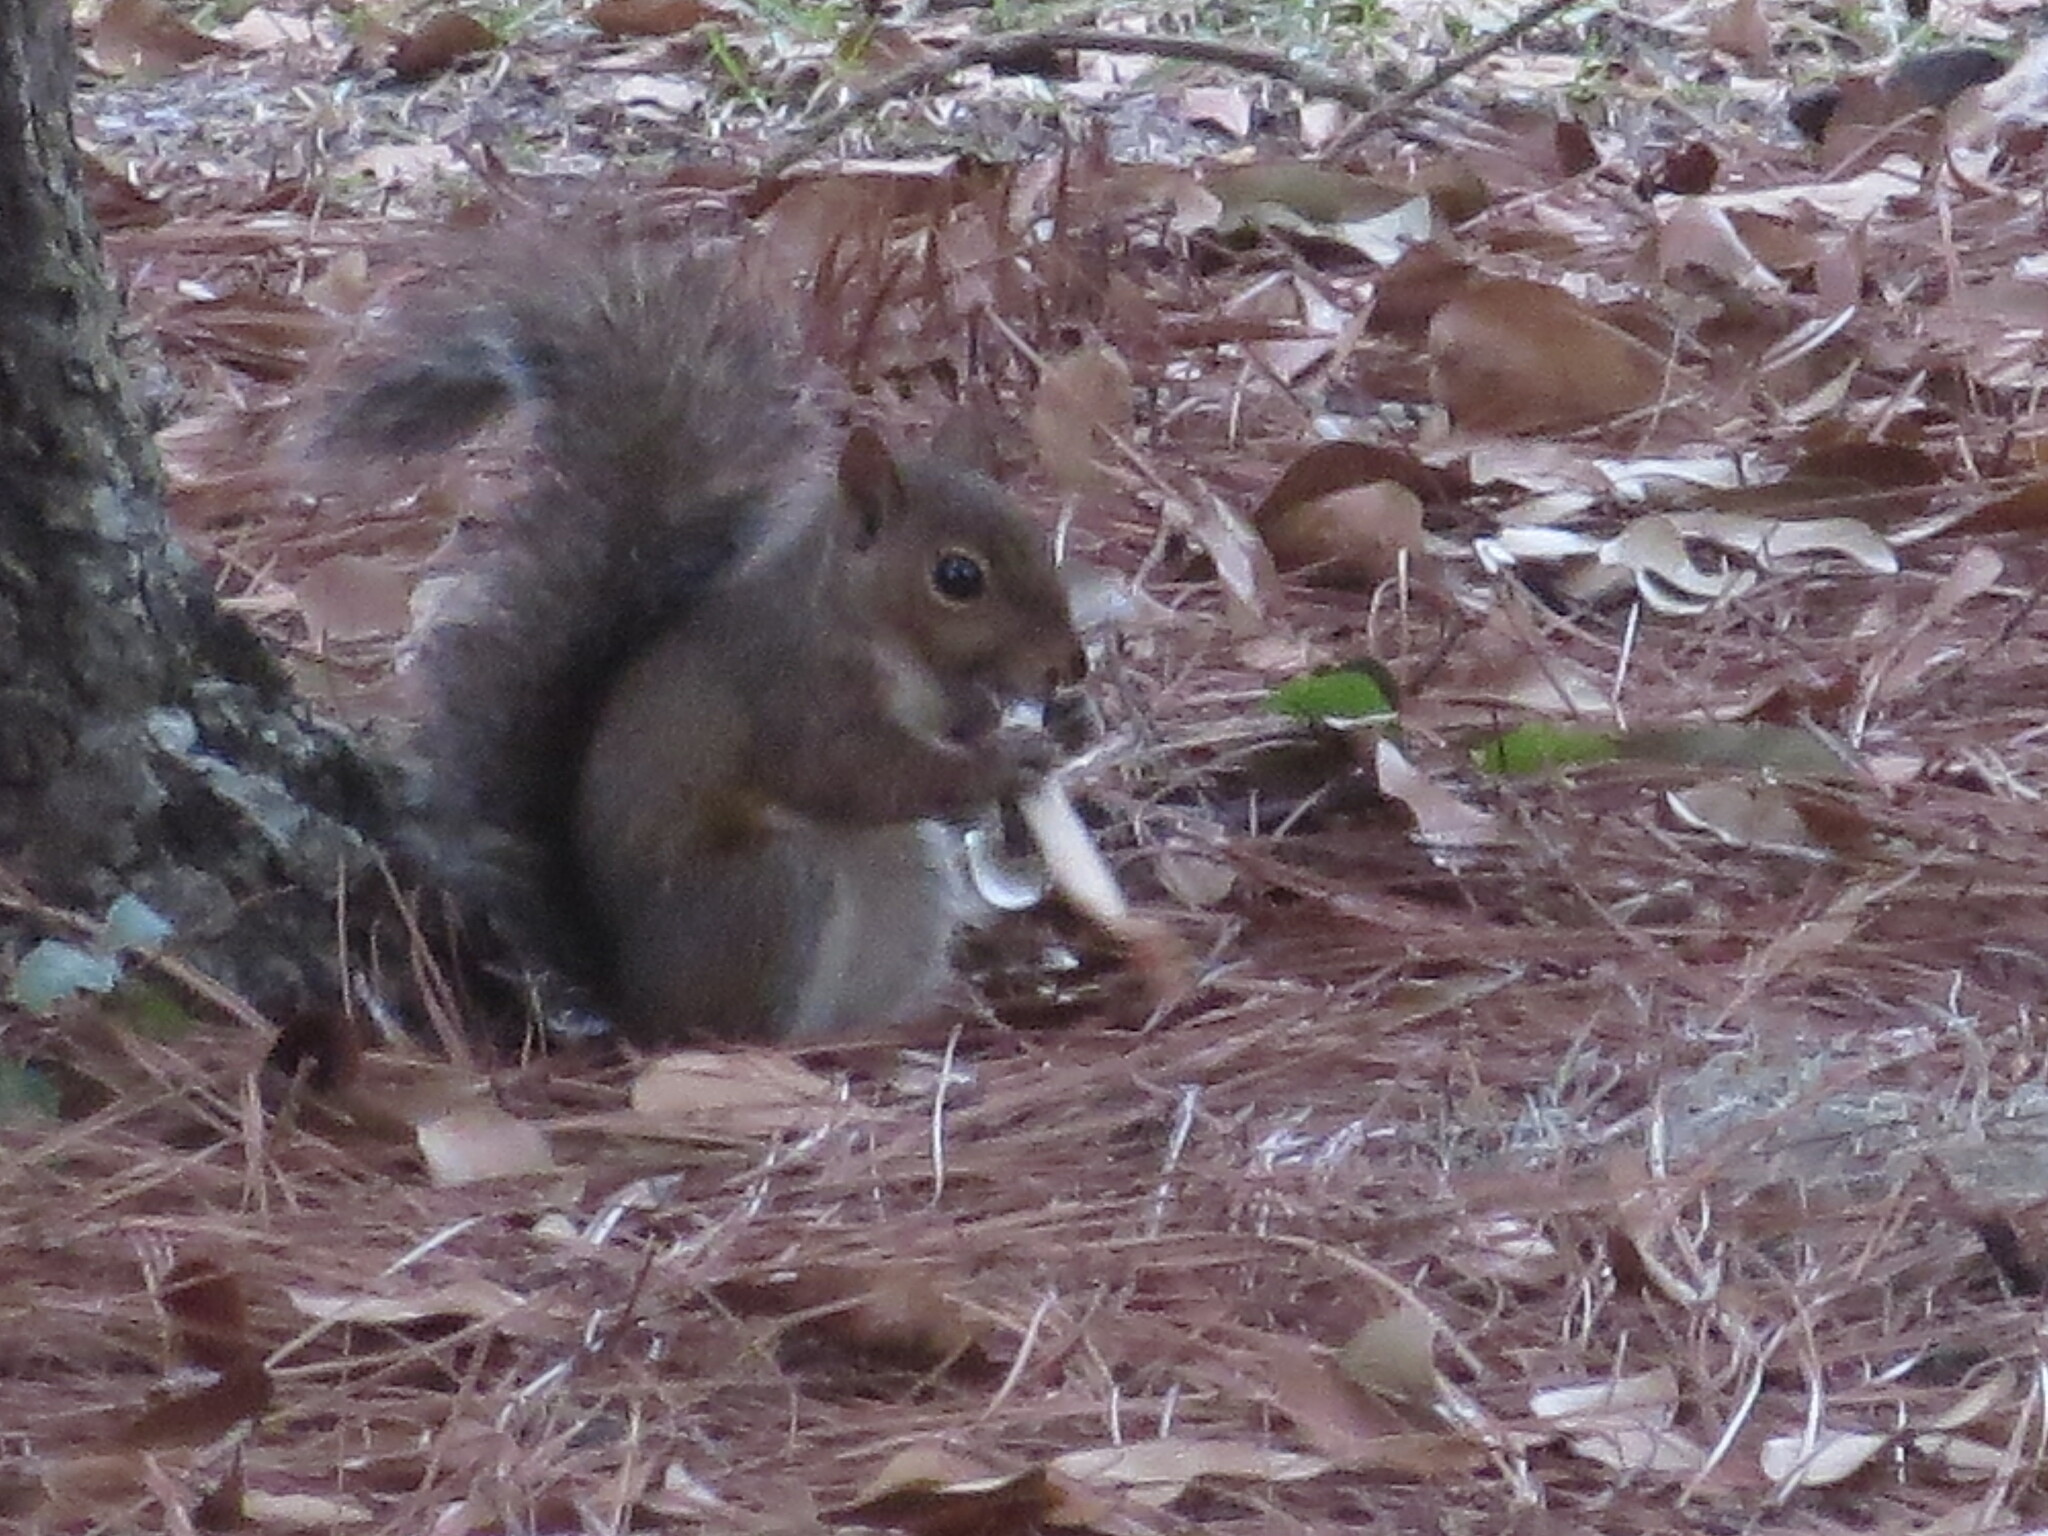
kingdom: Animalia
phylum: Chordata
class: Mammalia
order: Rodentia
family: Sciuridae
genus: Sciurus
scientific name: Sciurus carolinensis
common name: Eastern gray squirrel
